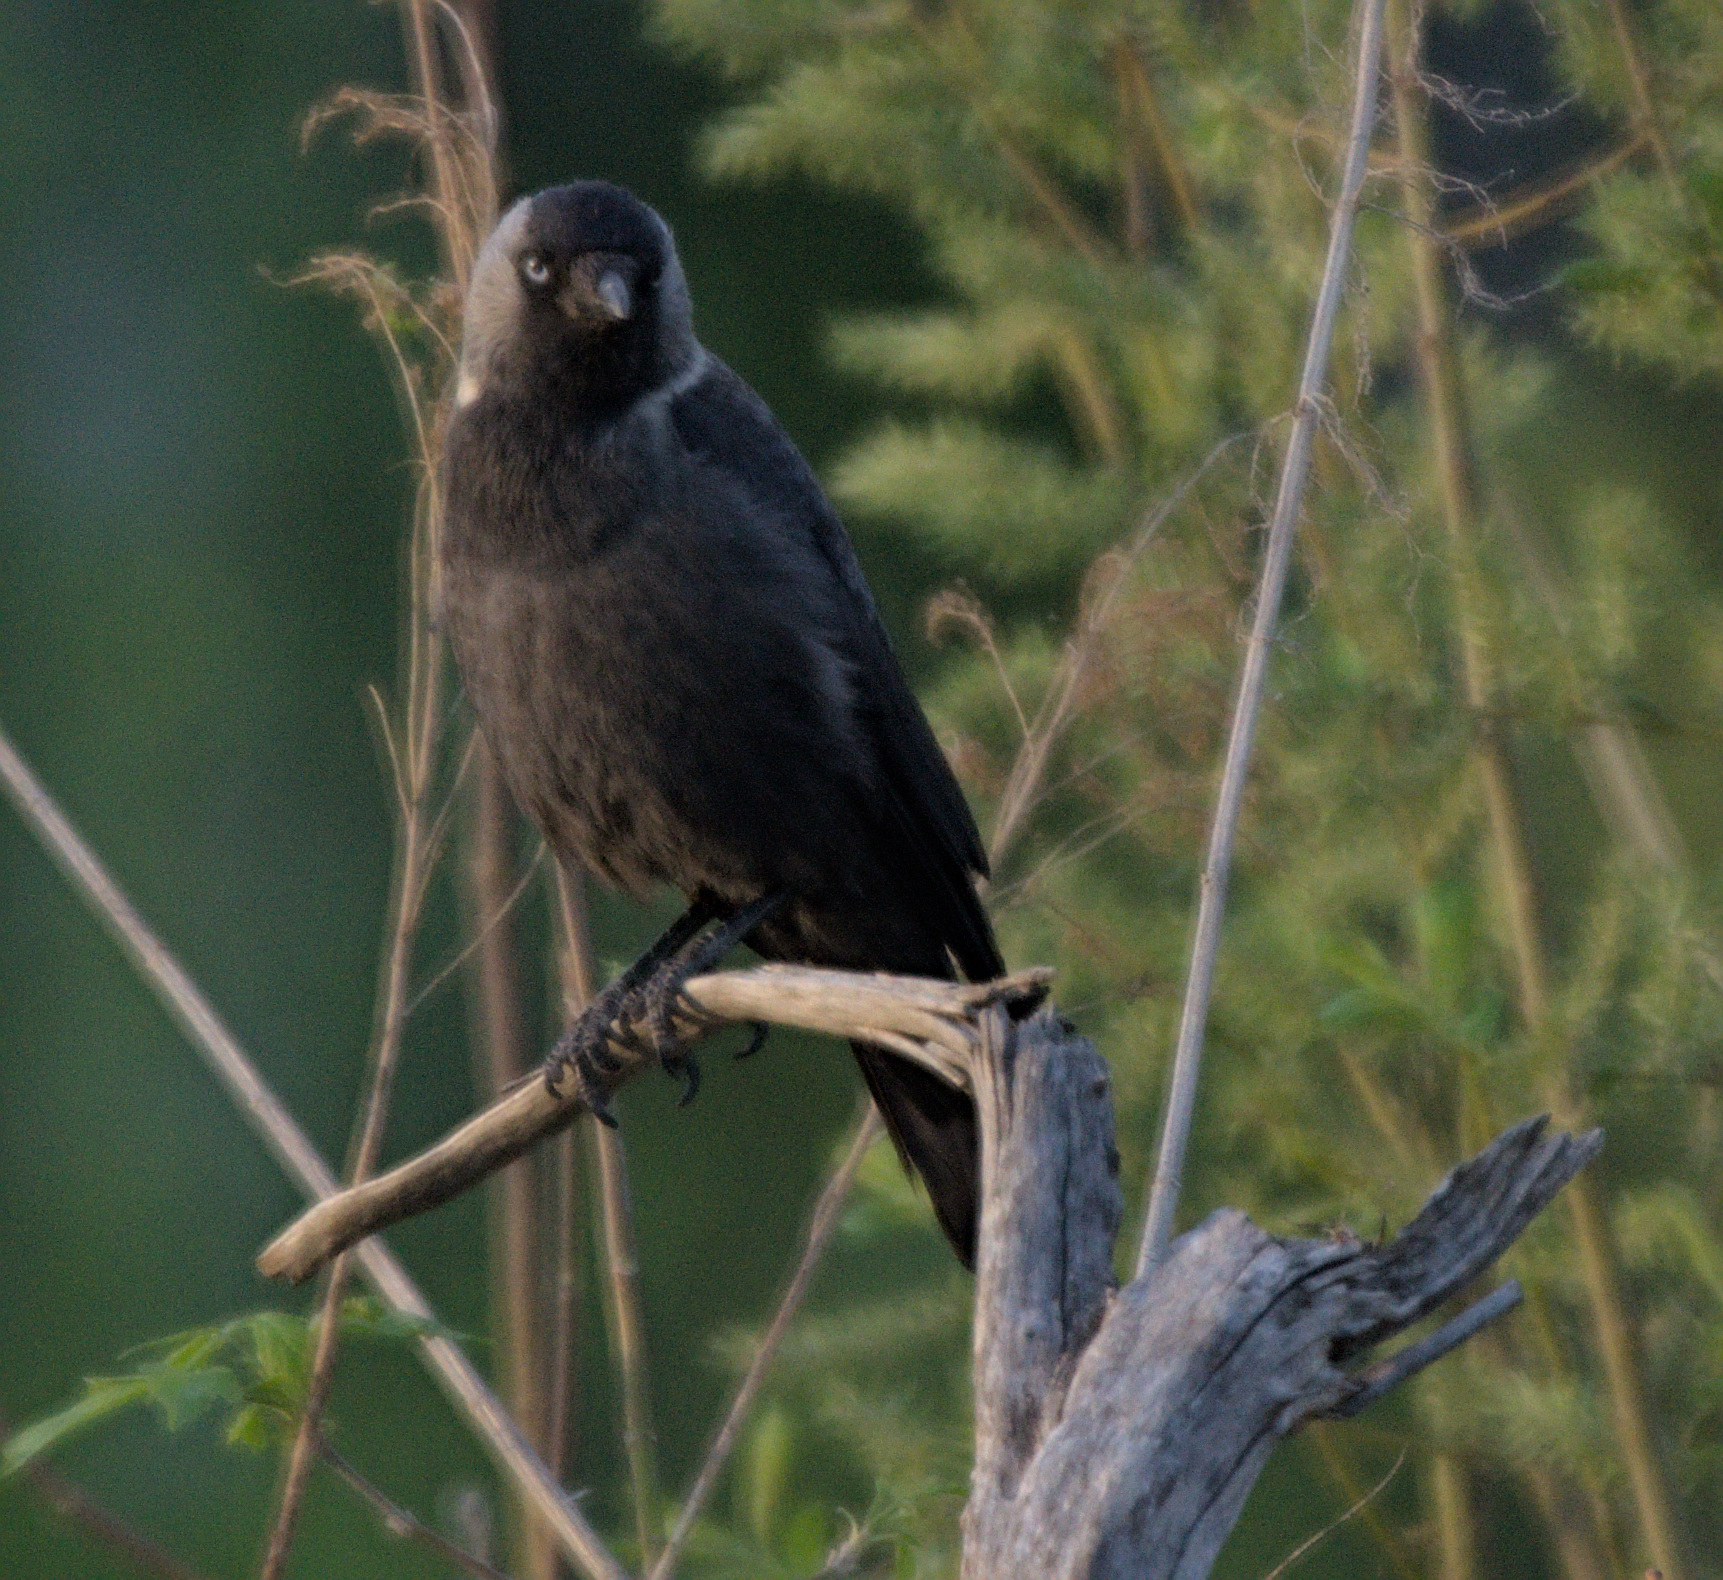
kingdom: Animalia
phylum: Chordata
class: Aves
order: Passeriformes
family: Corvidae
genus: Coloeus
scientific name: Coloeus monedula
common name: Western jackdaw
